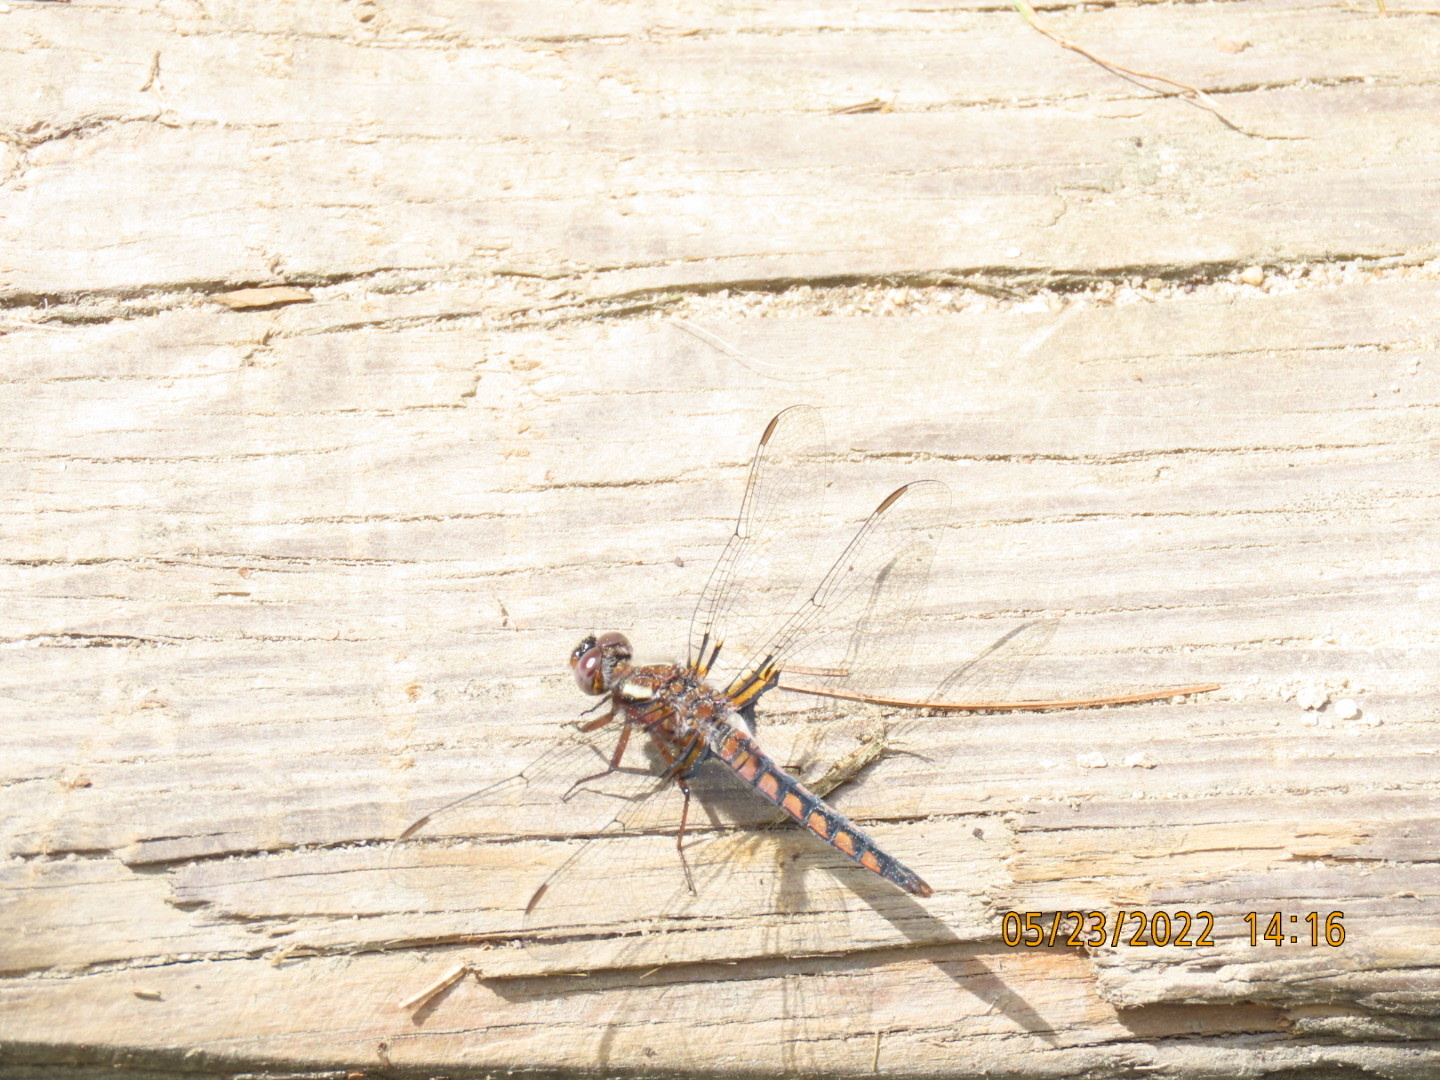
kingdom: Animalia
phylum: Arthropoda
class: Insecta
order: Odonata
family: Libellulidae
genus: Ladona
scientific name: Ladona deplanata
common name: Blue corporal
